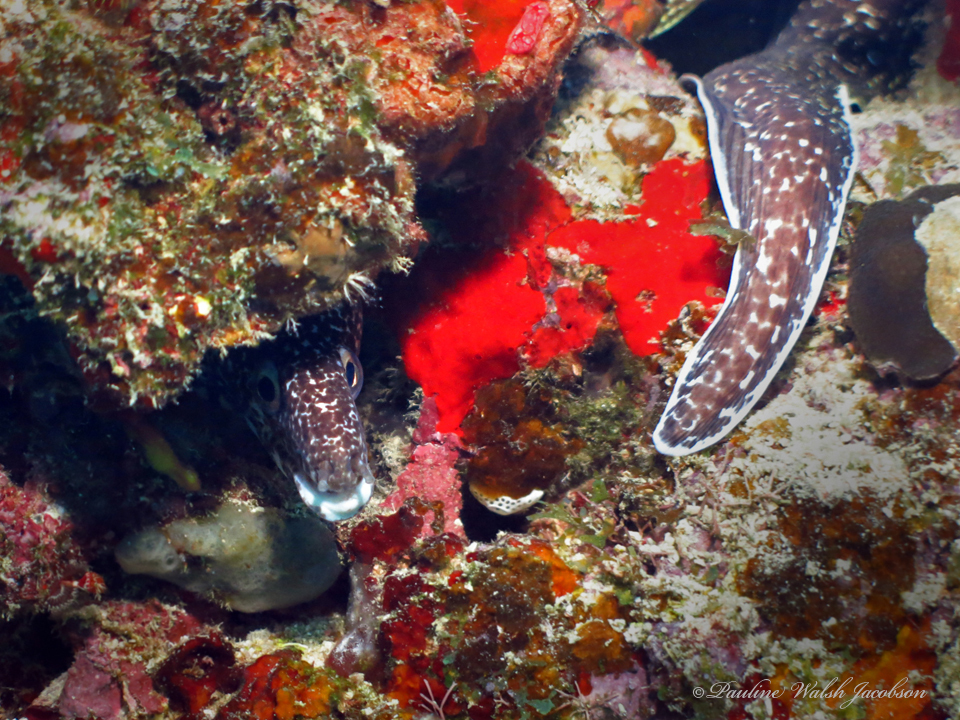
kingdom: Animalia
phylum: Chordata
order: Anguilliformes
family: Muraenidae
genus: Gymnothorax
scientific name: Gymnothorax moringa
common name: Spotted moray
